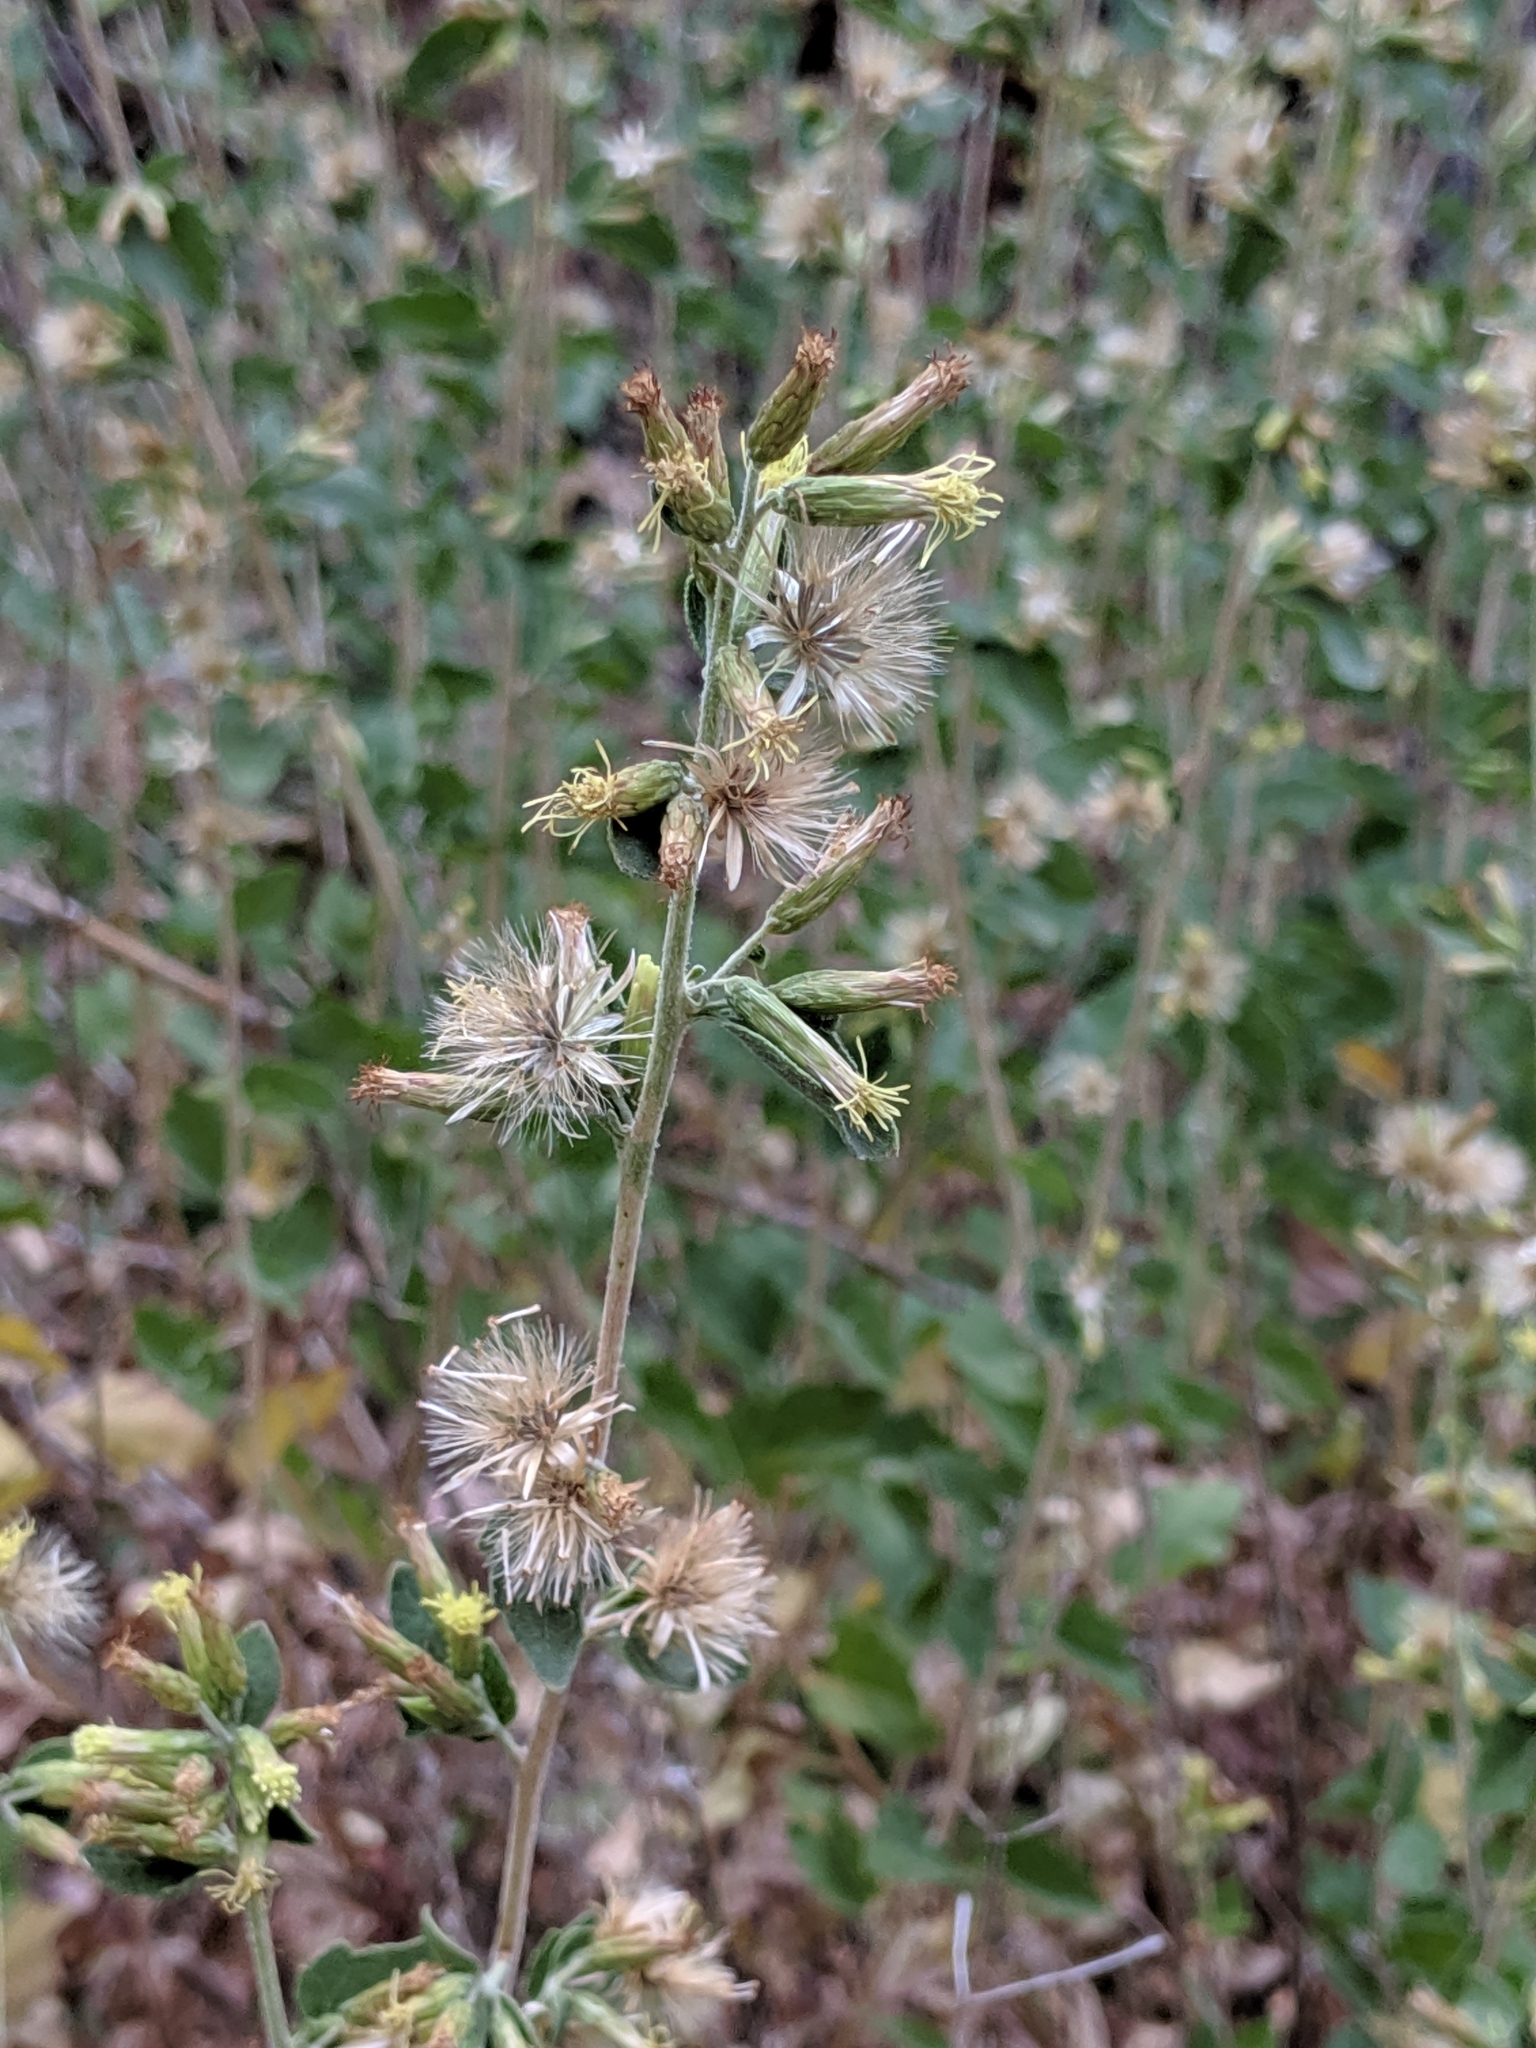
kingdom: Plantae
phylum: Tracheophyta
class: Magnoliopsida
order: Asterales
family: Asteraceae
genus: Brickellia
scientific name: Brickellia californica
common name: California brickellbush
